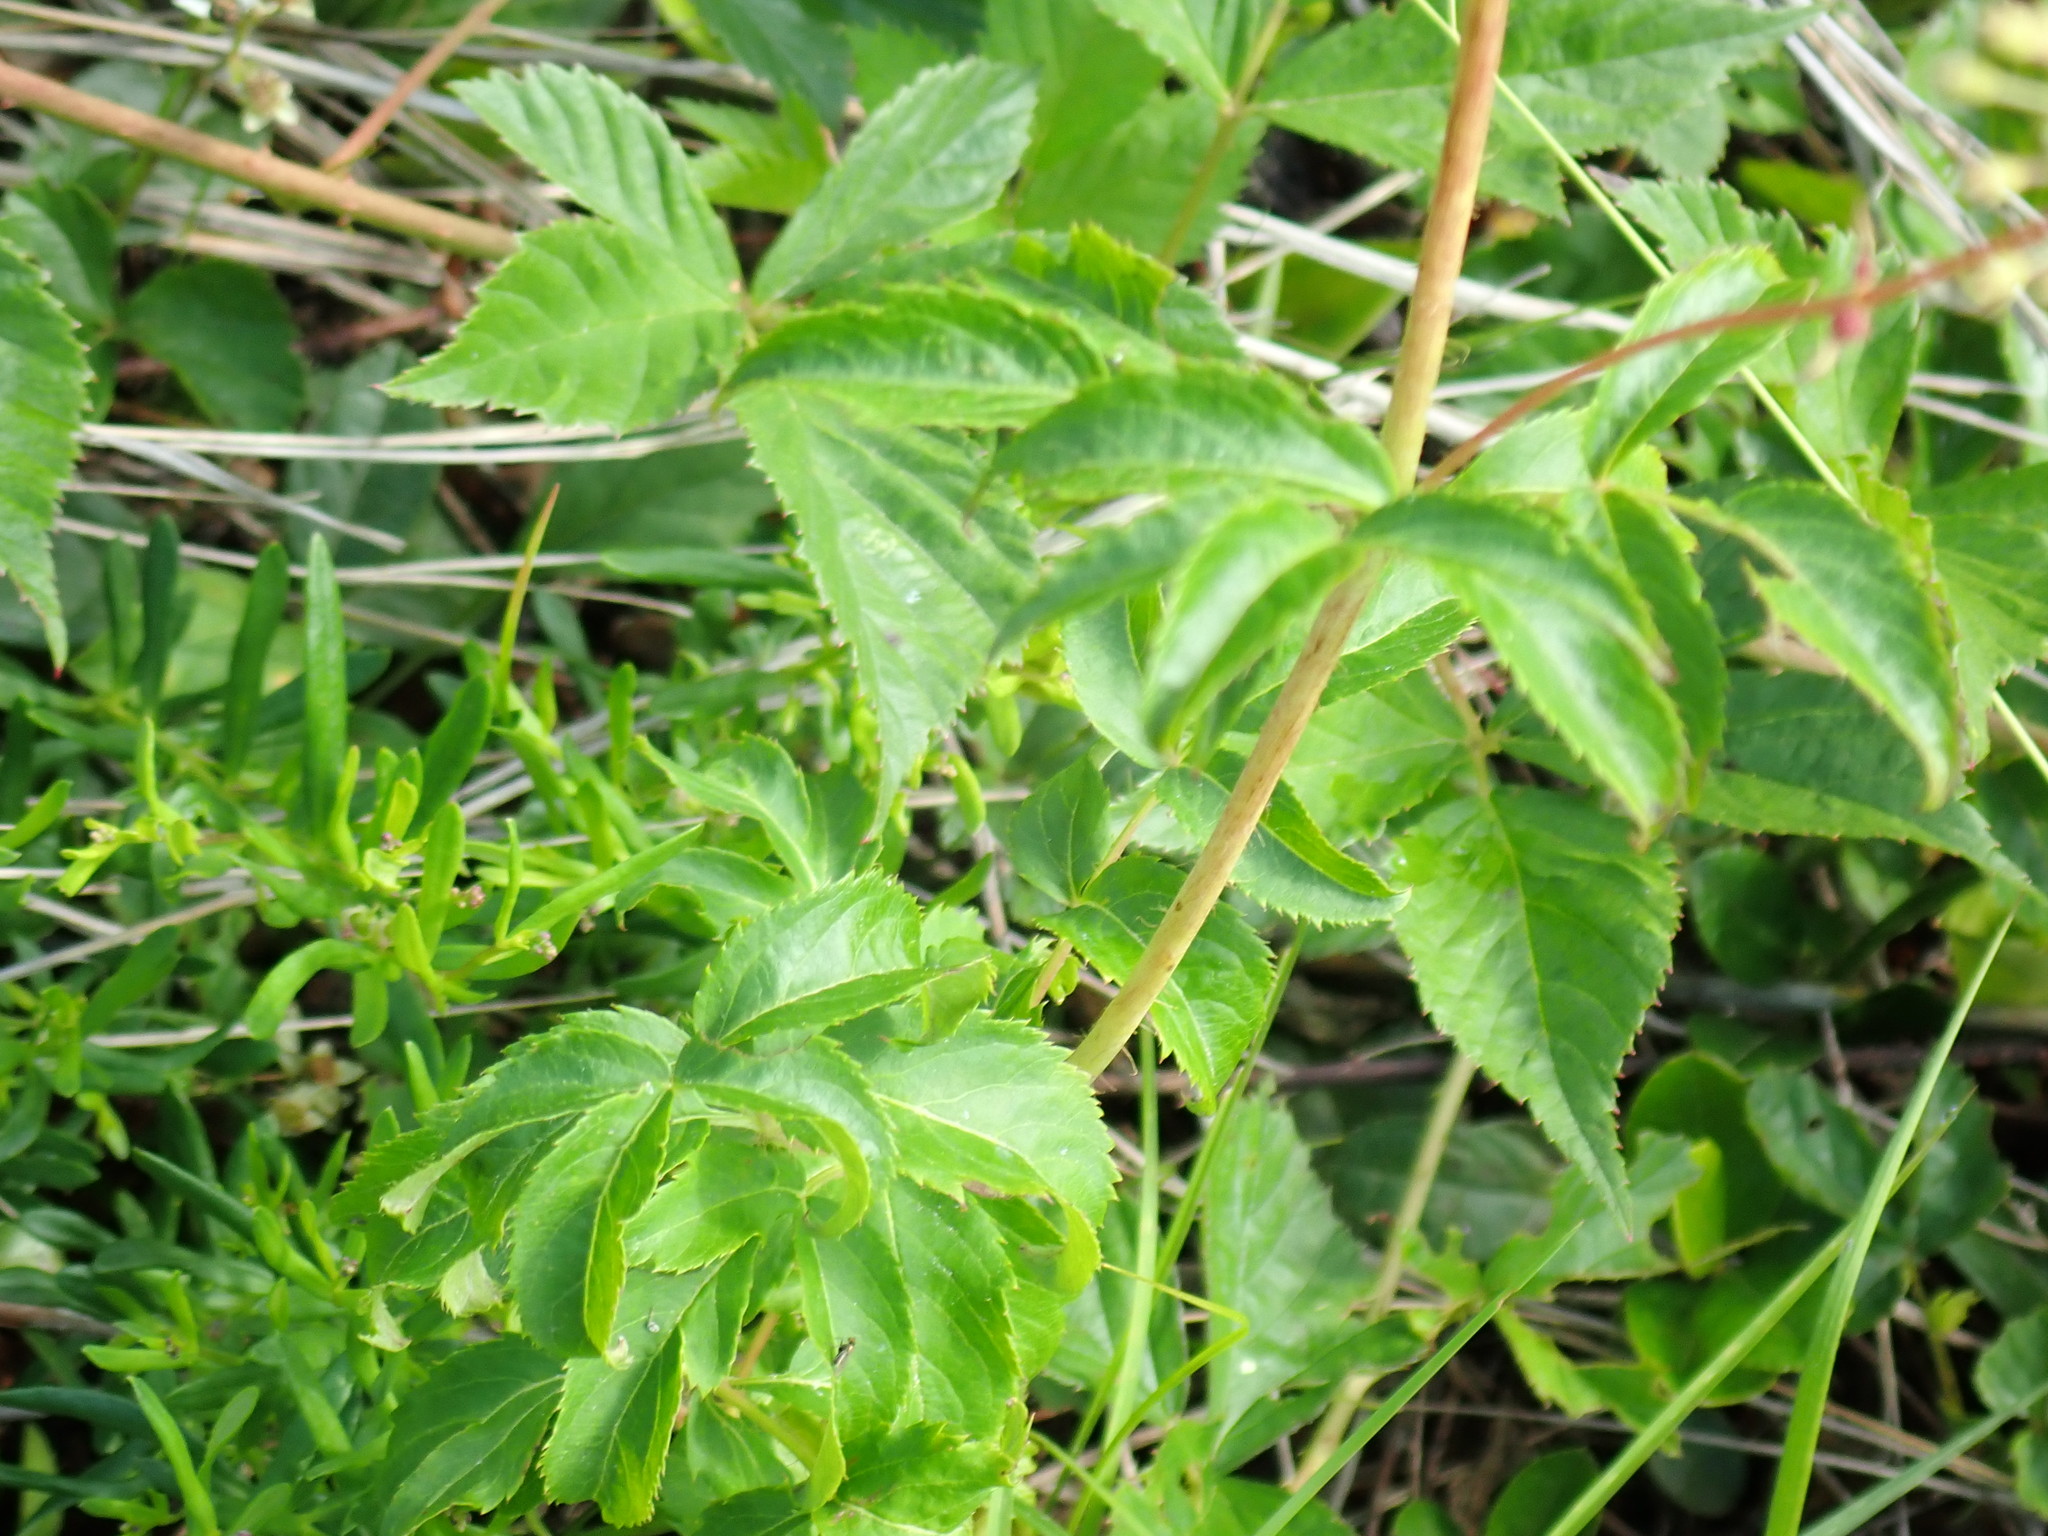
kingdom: Plantae
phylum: Tracheophyta
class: Magnoliopsida
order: Apiales
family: Araliaceae
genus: Aralia
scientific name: Aralia hispida
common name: Bristly sarsaparilla
